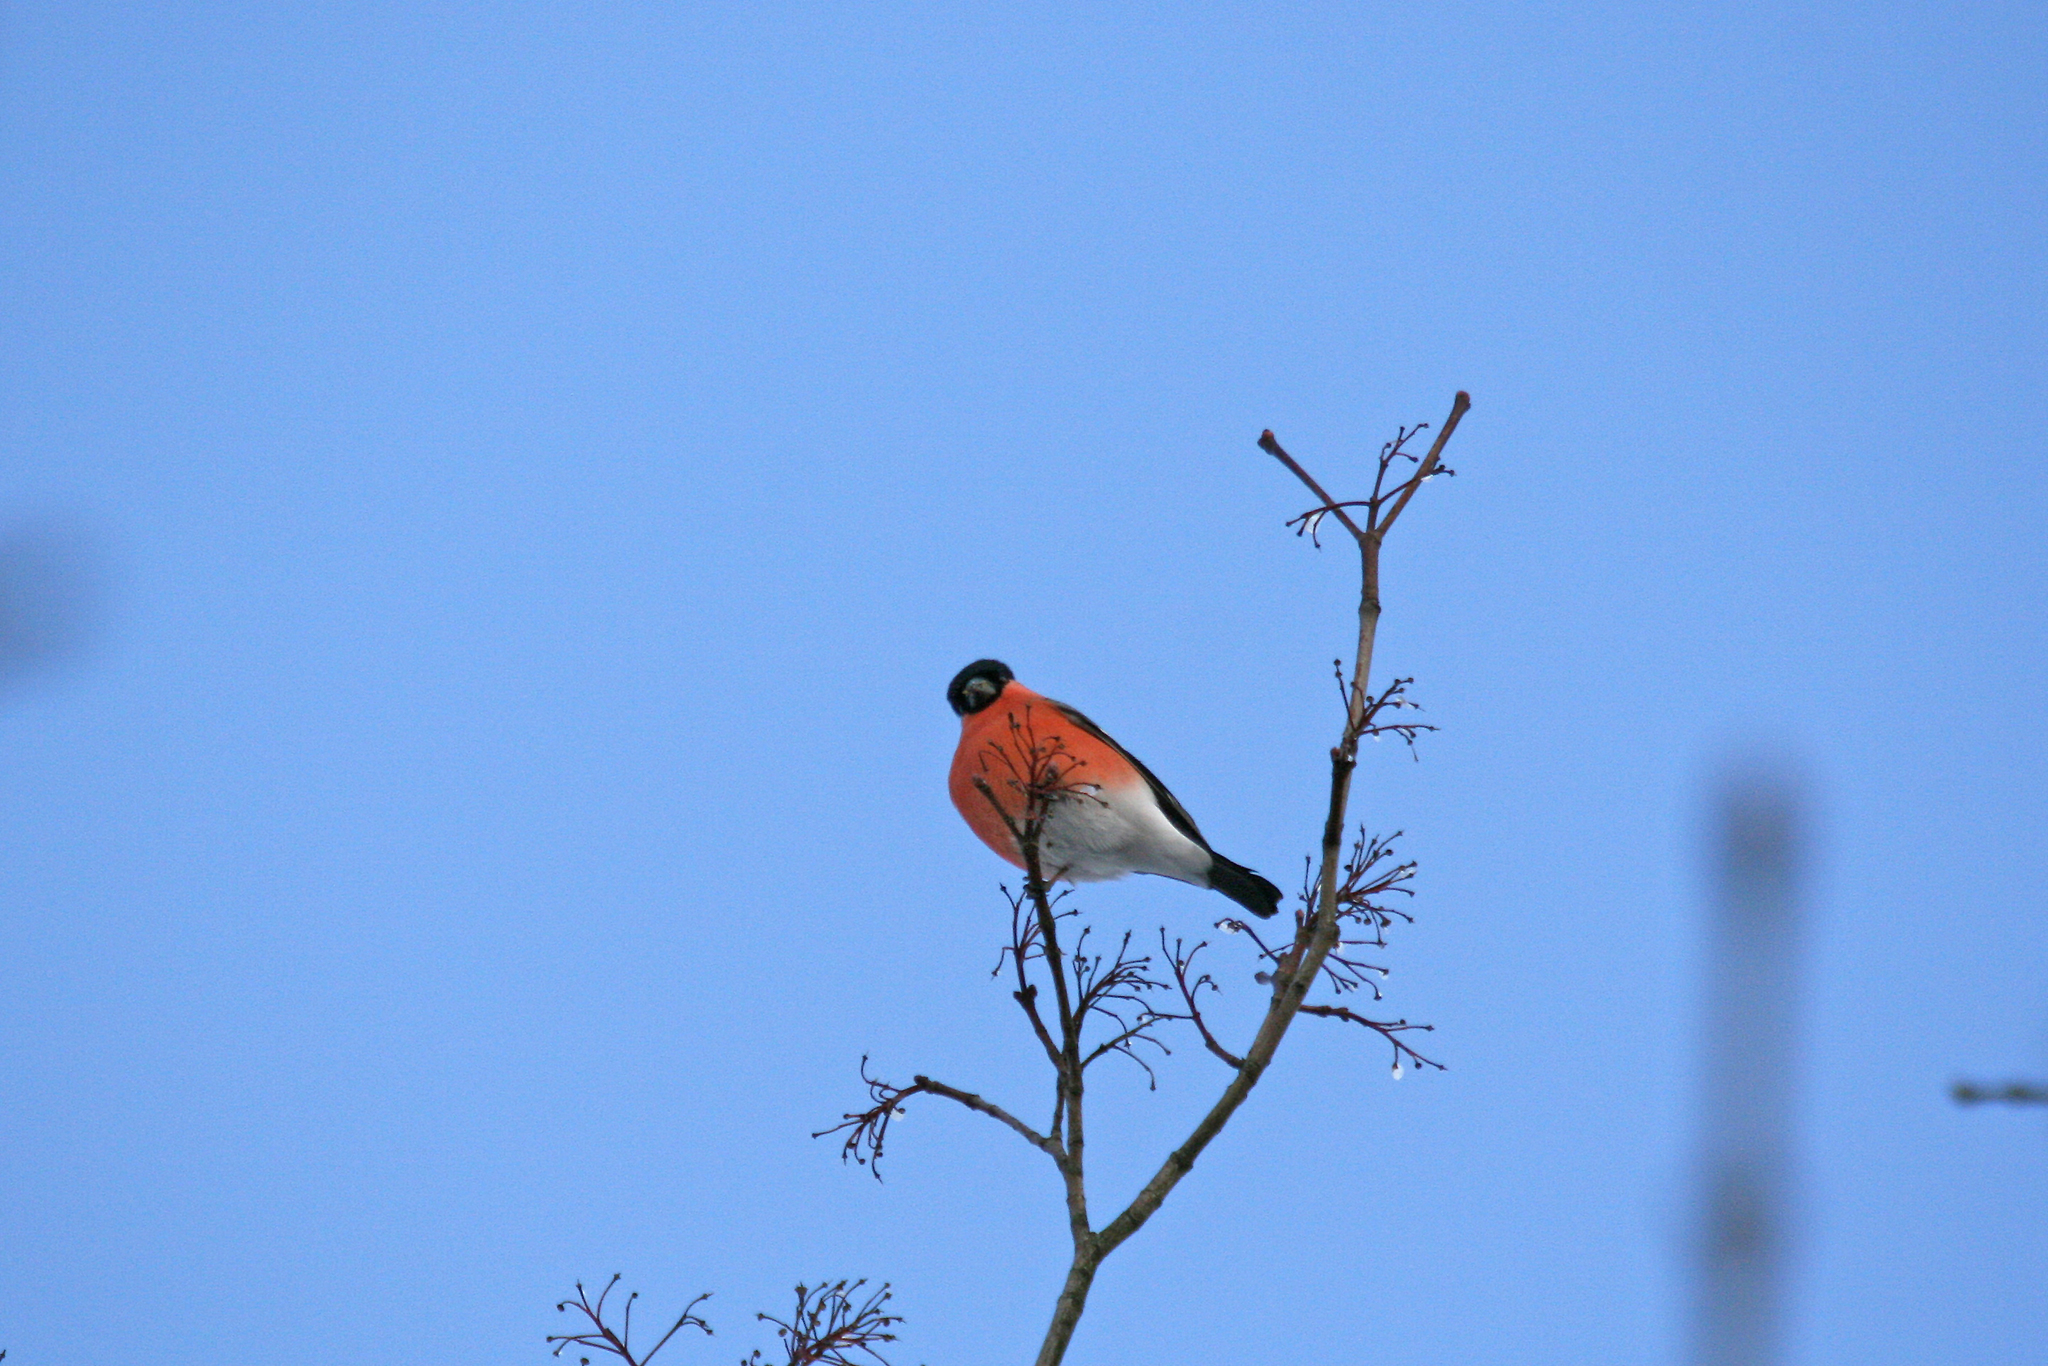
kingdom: Animalia
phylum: Chordata
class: Aves
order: Passeriformes
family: Fringillidae
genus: Pyrrhula
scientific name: Pyrrhula pyrrhula
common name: Eurasian bullfinch
